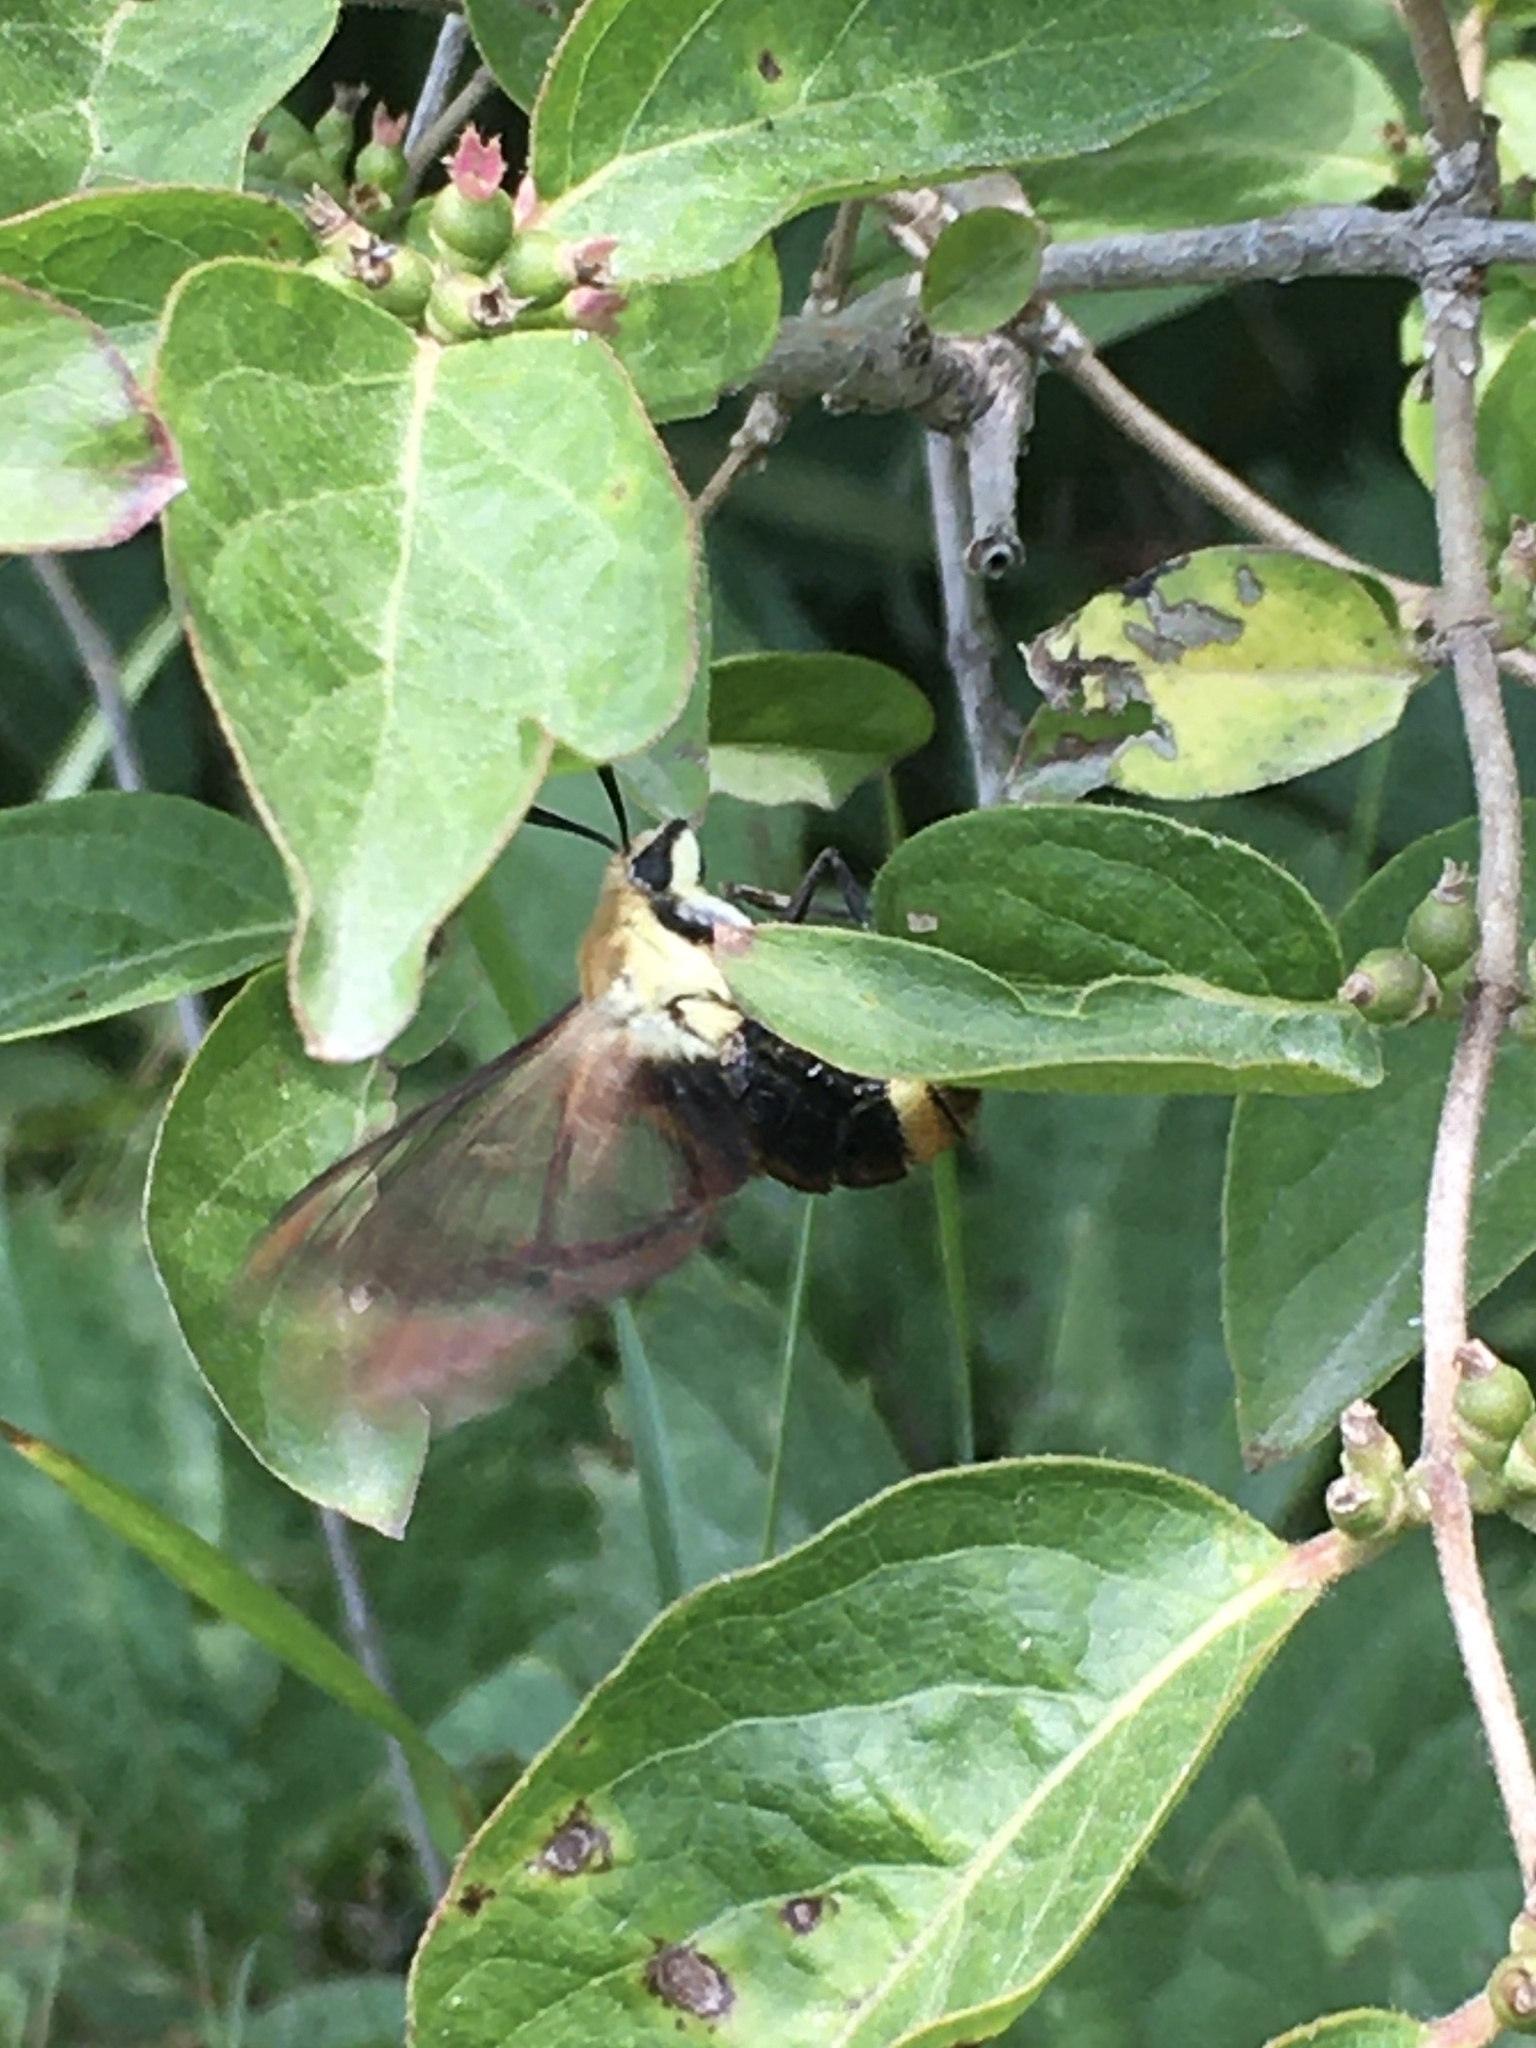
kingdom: Animalia
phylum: Arthropoda
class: Insecta
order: Lepidoptera
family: Sphingidae
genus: Hemaris
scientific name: Hemaris diffinis
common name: Bumblebee moth
